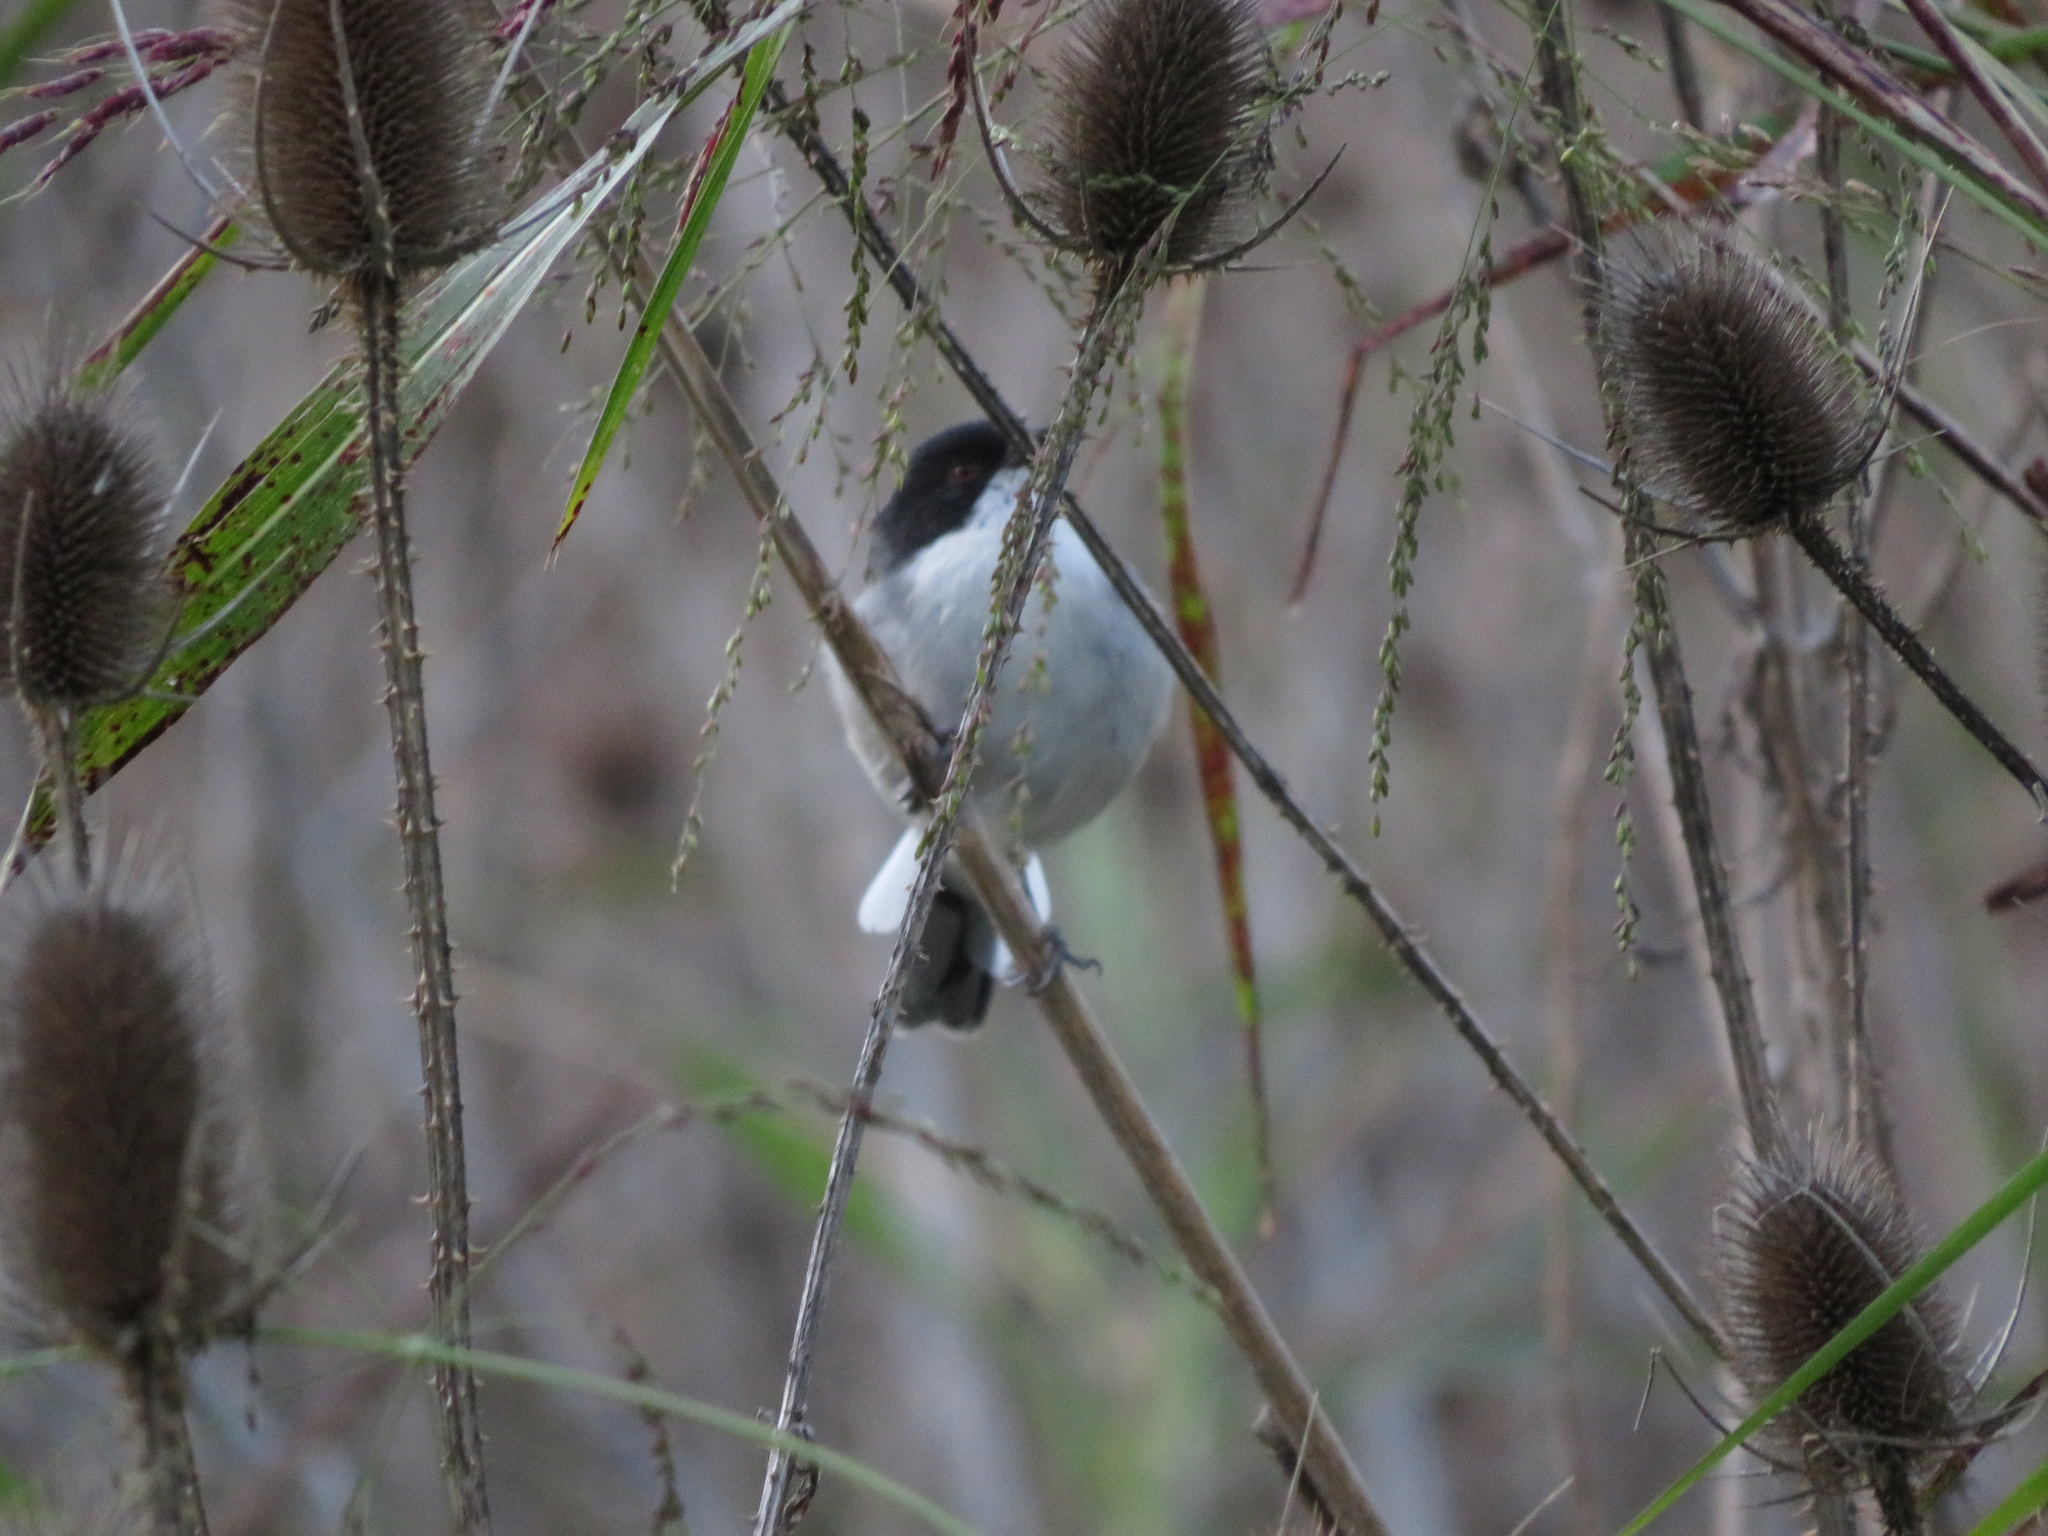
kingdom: Animalia
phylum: Chordata
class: Aves
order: Passeriformes
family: Thraupidae
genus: Microspingus
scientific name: Microspingus melanoleucus
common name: Black-capped warbling-finch
